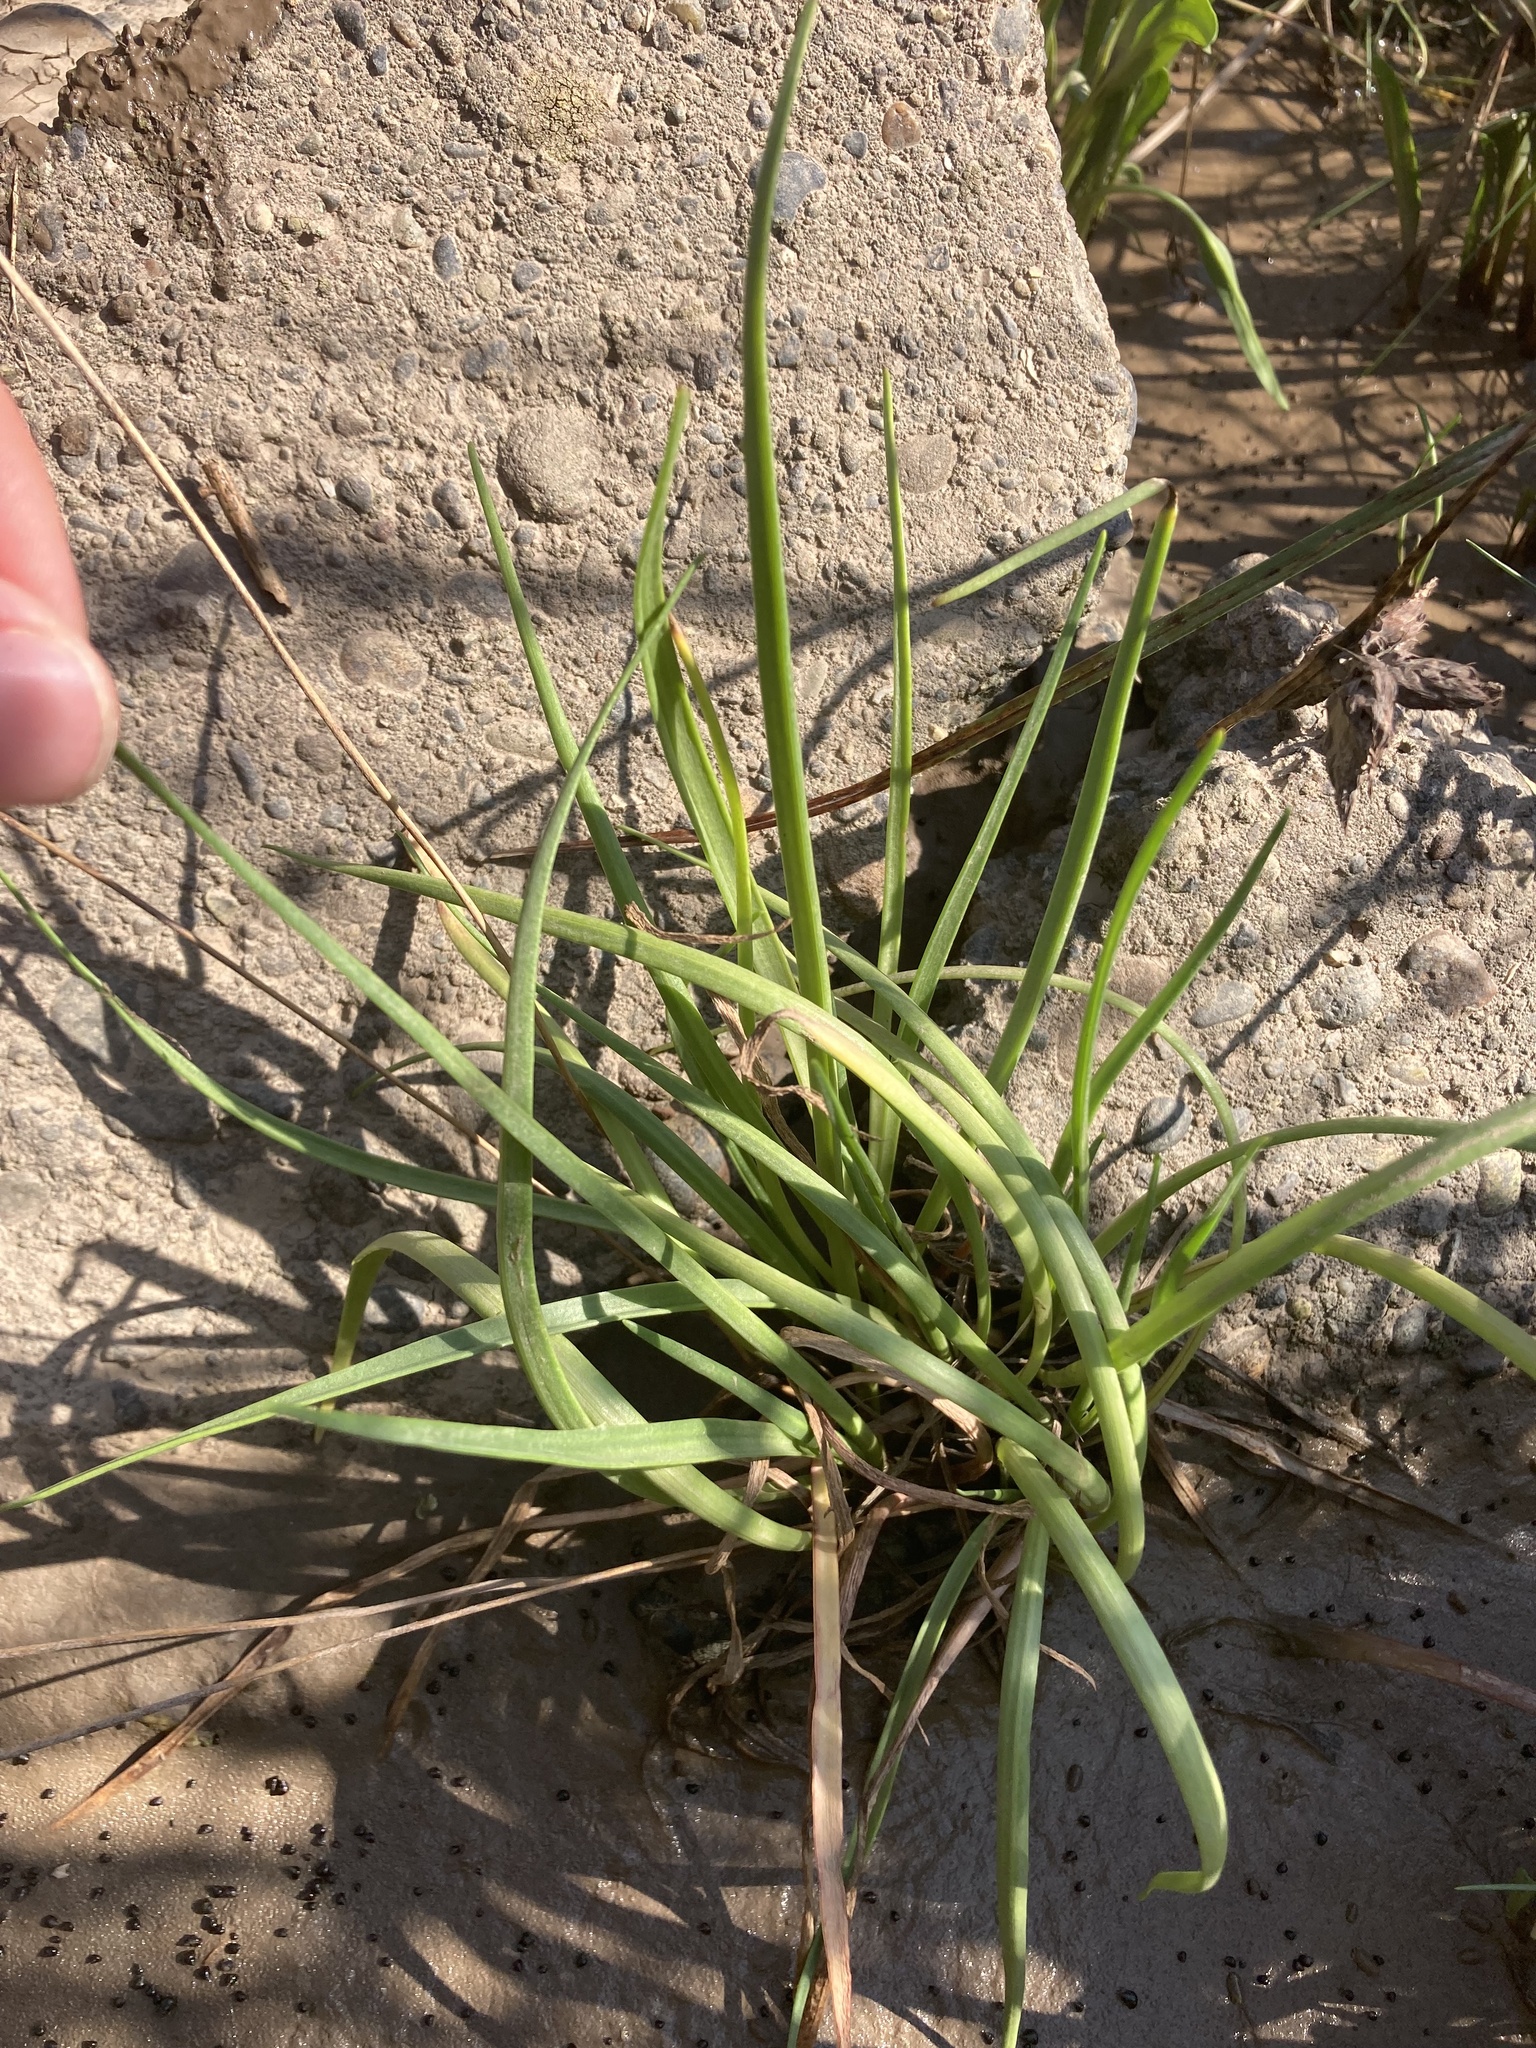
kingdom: Plantae
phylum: Tracheophyta
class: Magnoliopsida
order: Lamiales
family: Plantaginaceae
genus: Plantago
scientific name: Plantago maritima
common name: Sea plantain
